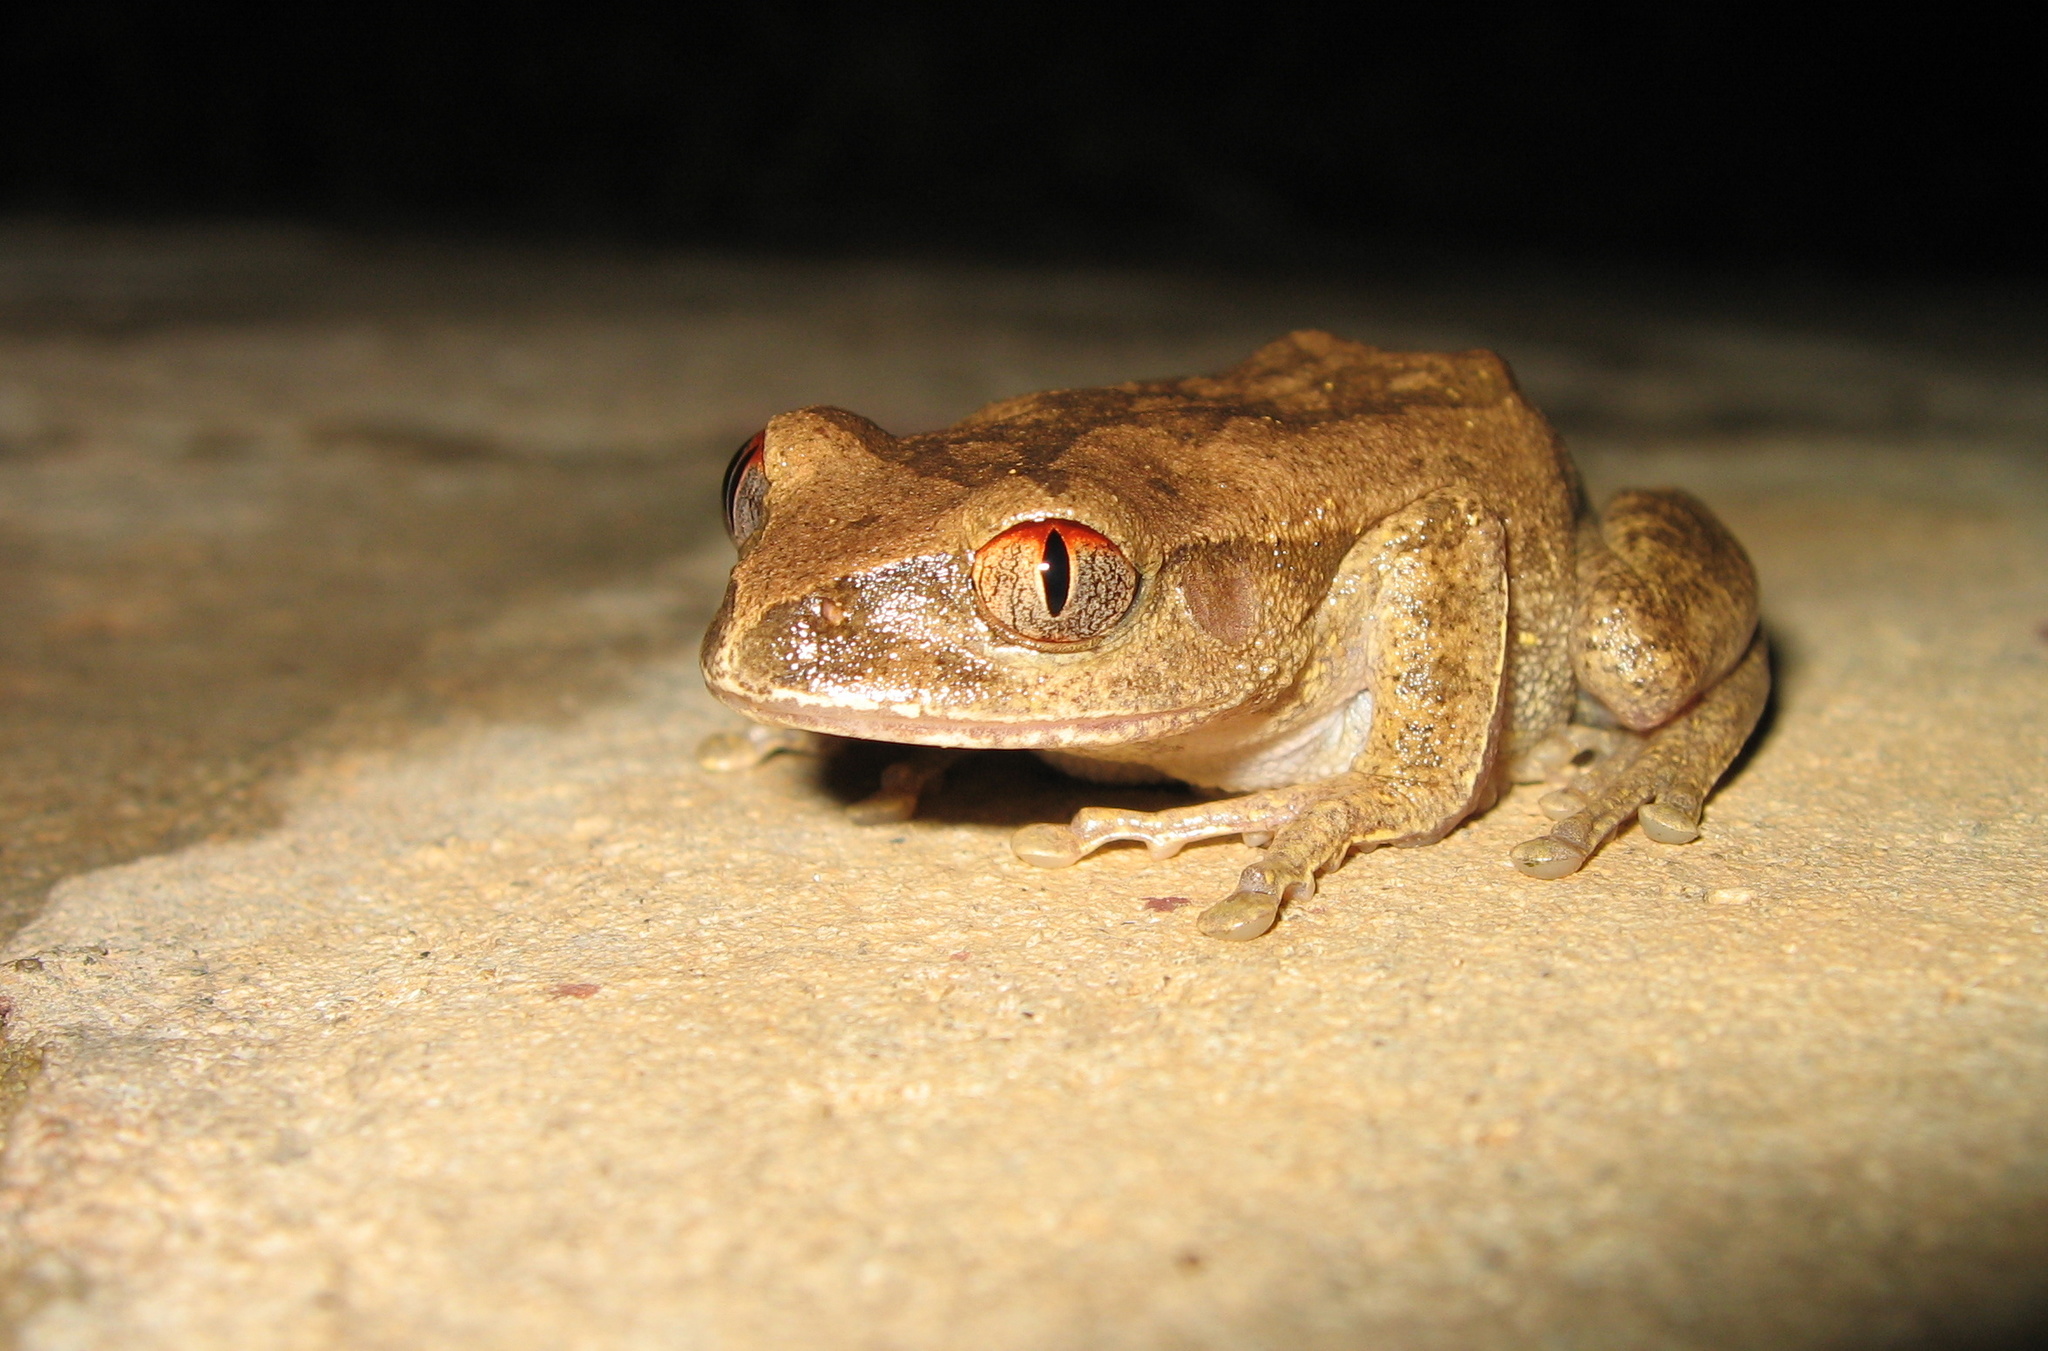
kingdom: Animalia
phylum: Chordata
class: Amphibia
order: Anura
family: Arthroleptidae
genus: Leptopelis
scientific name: Leptopelis spiritusnoctis
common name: Leaf-frog
